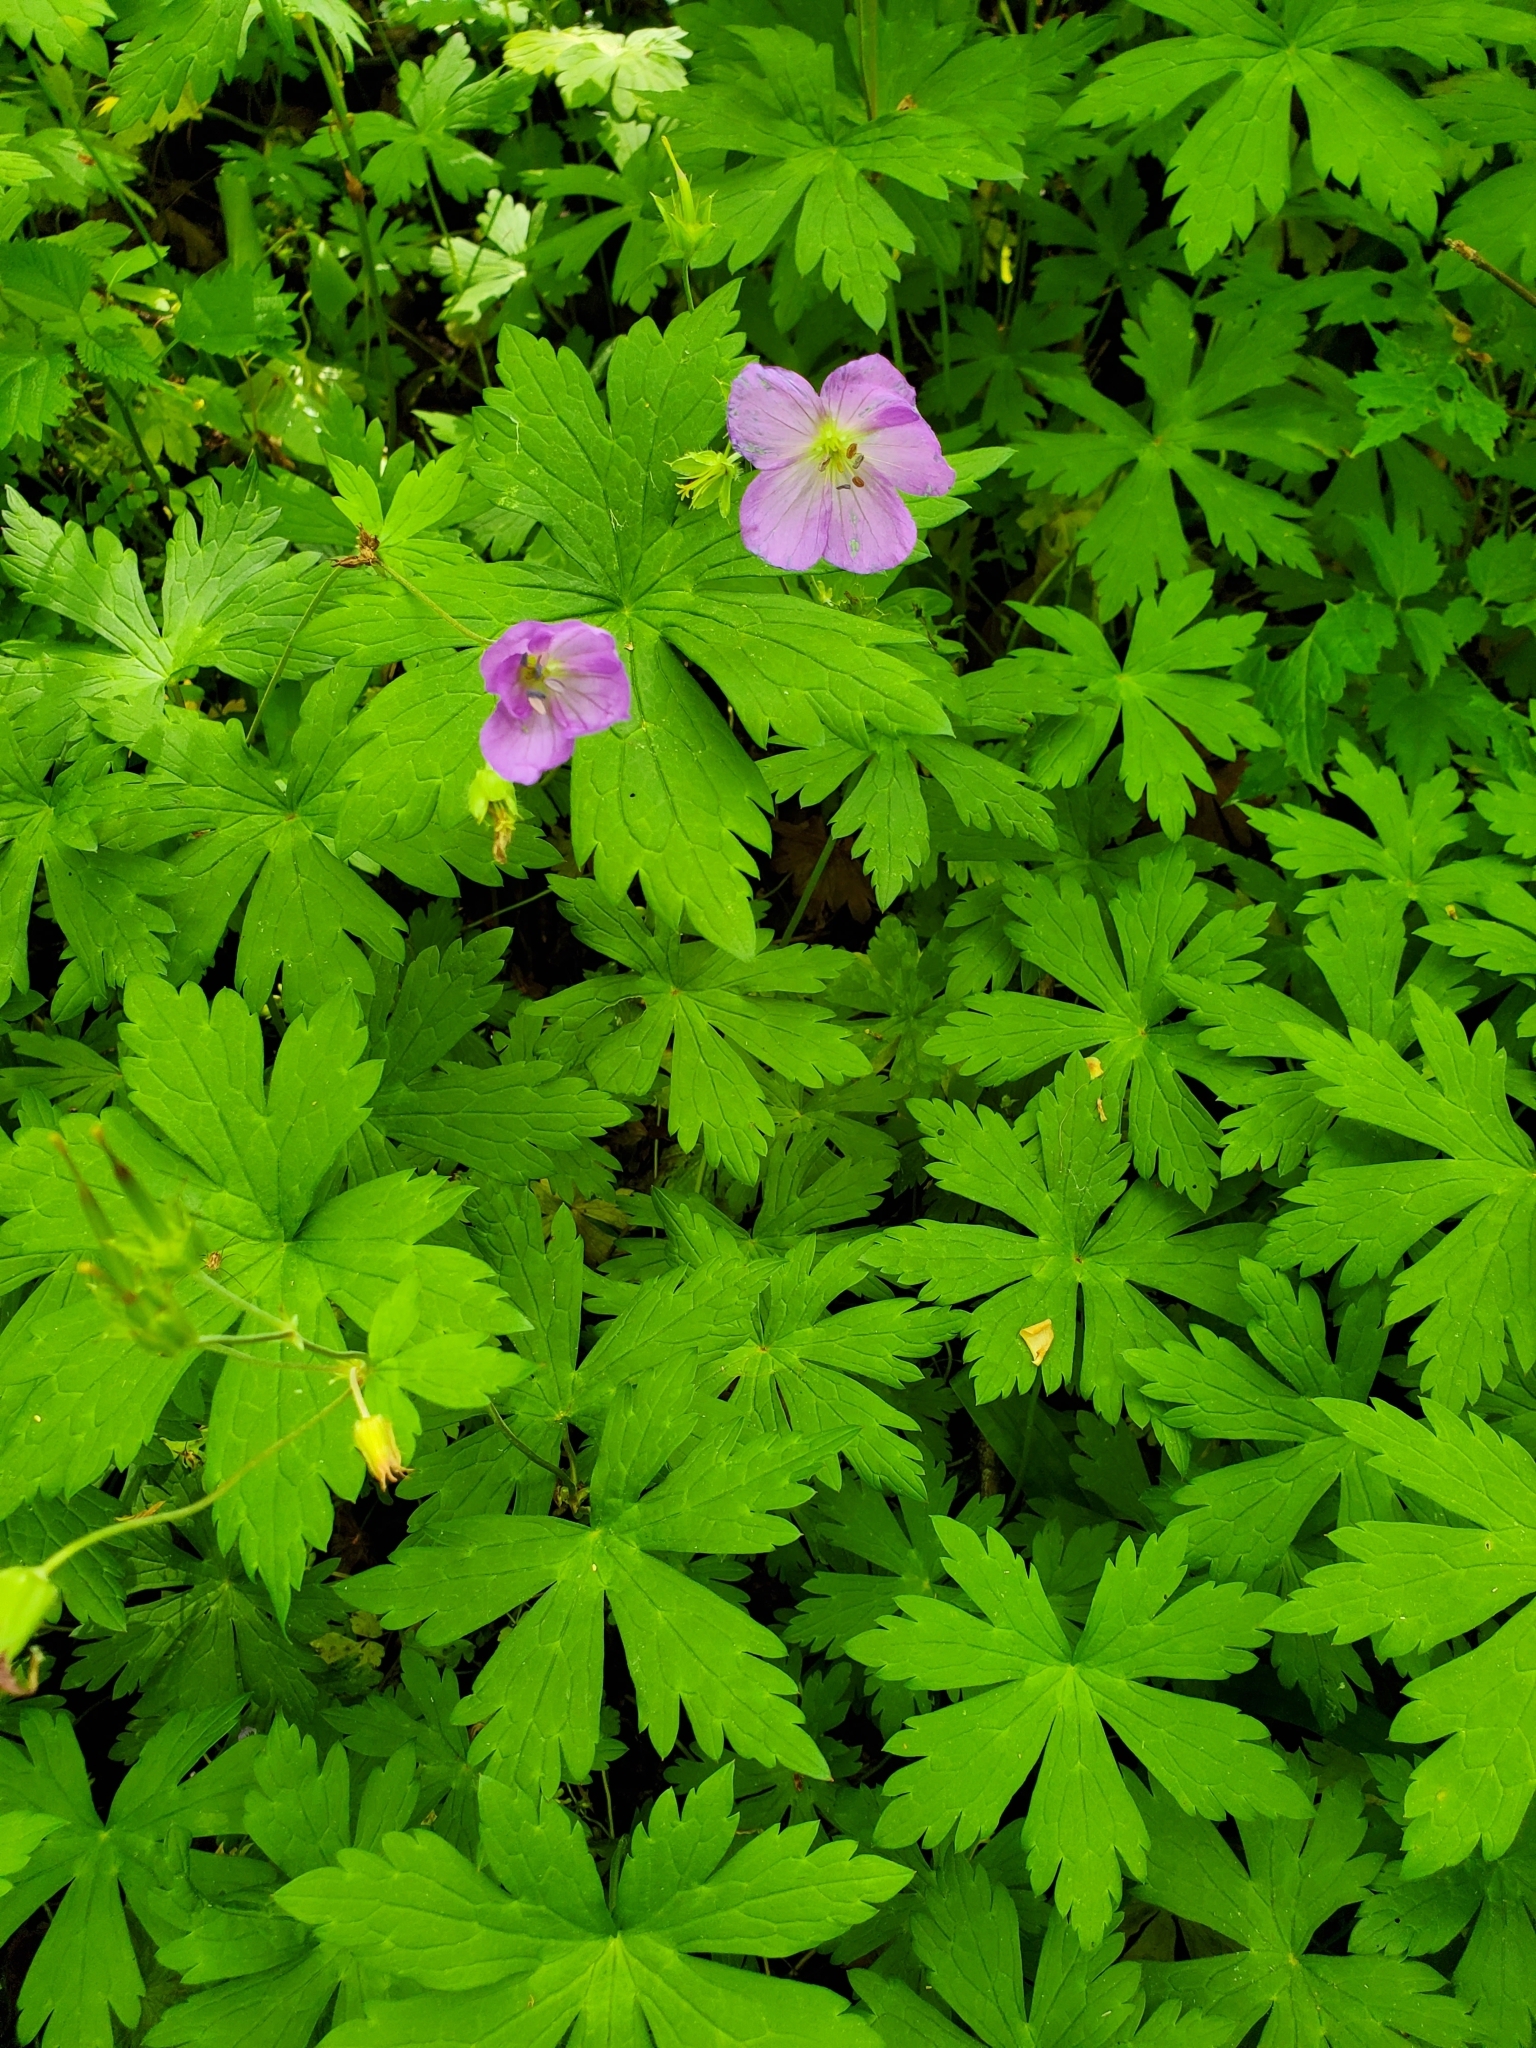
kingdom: Plantae
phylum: Tracheophyta
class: Magnoliopsida
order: Geraniales
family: Geraniaceae
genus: Geranium
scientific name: Geranium maculatum
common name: Spotted geranium
